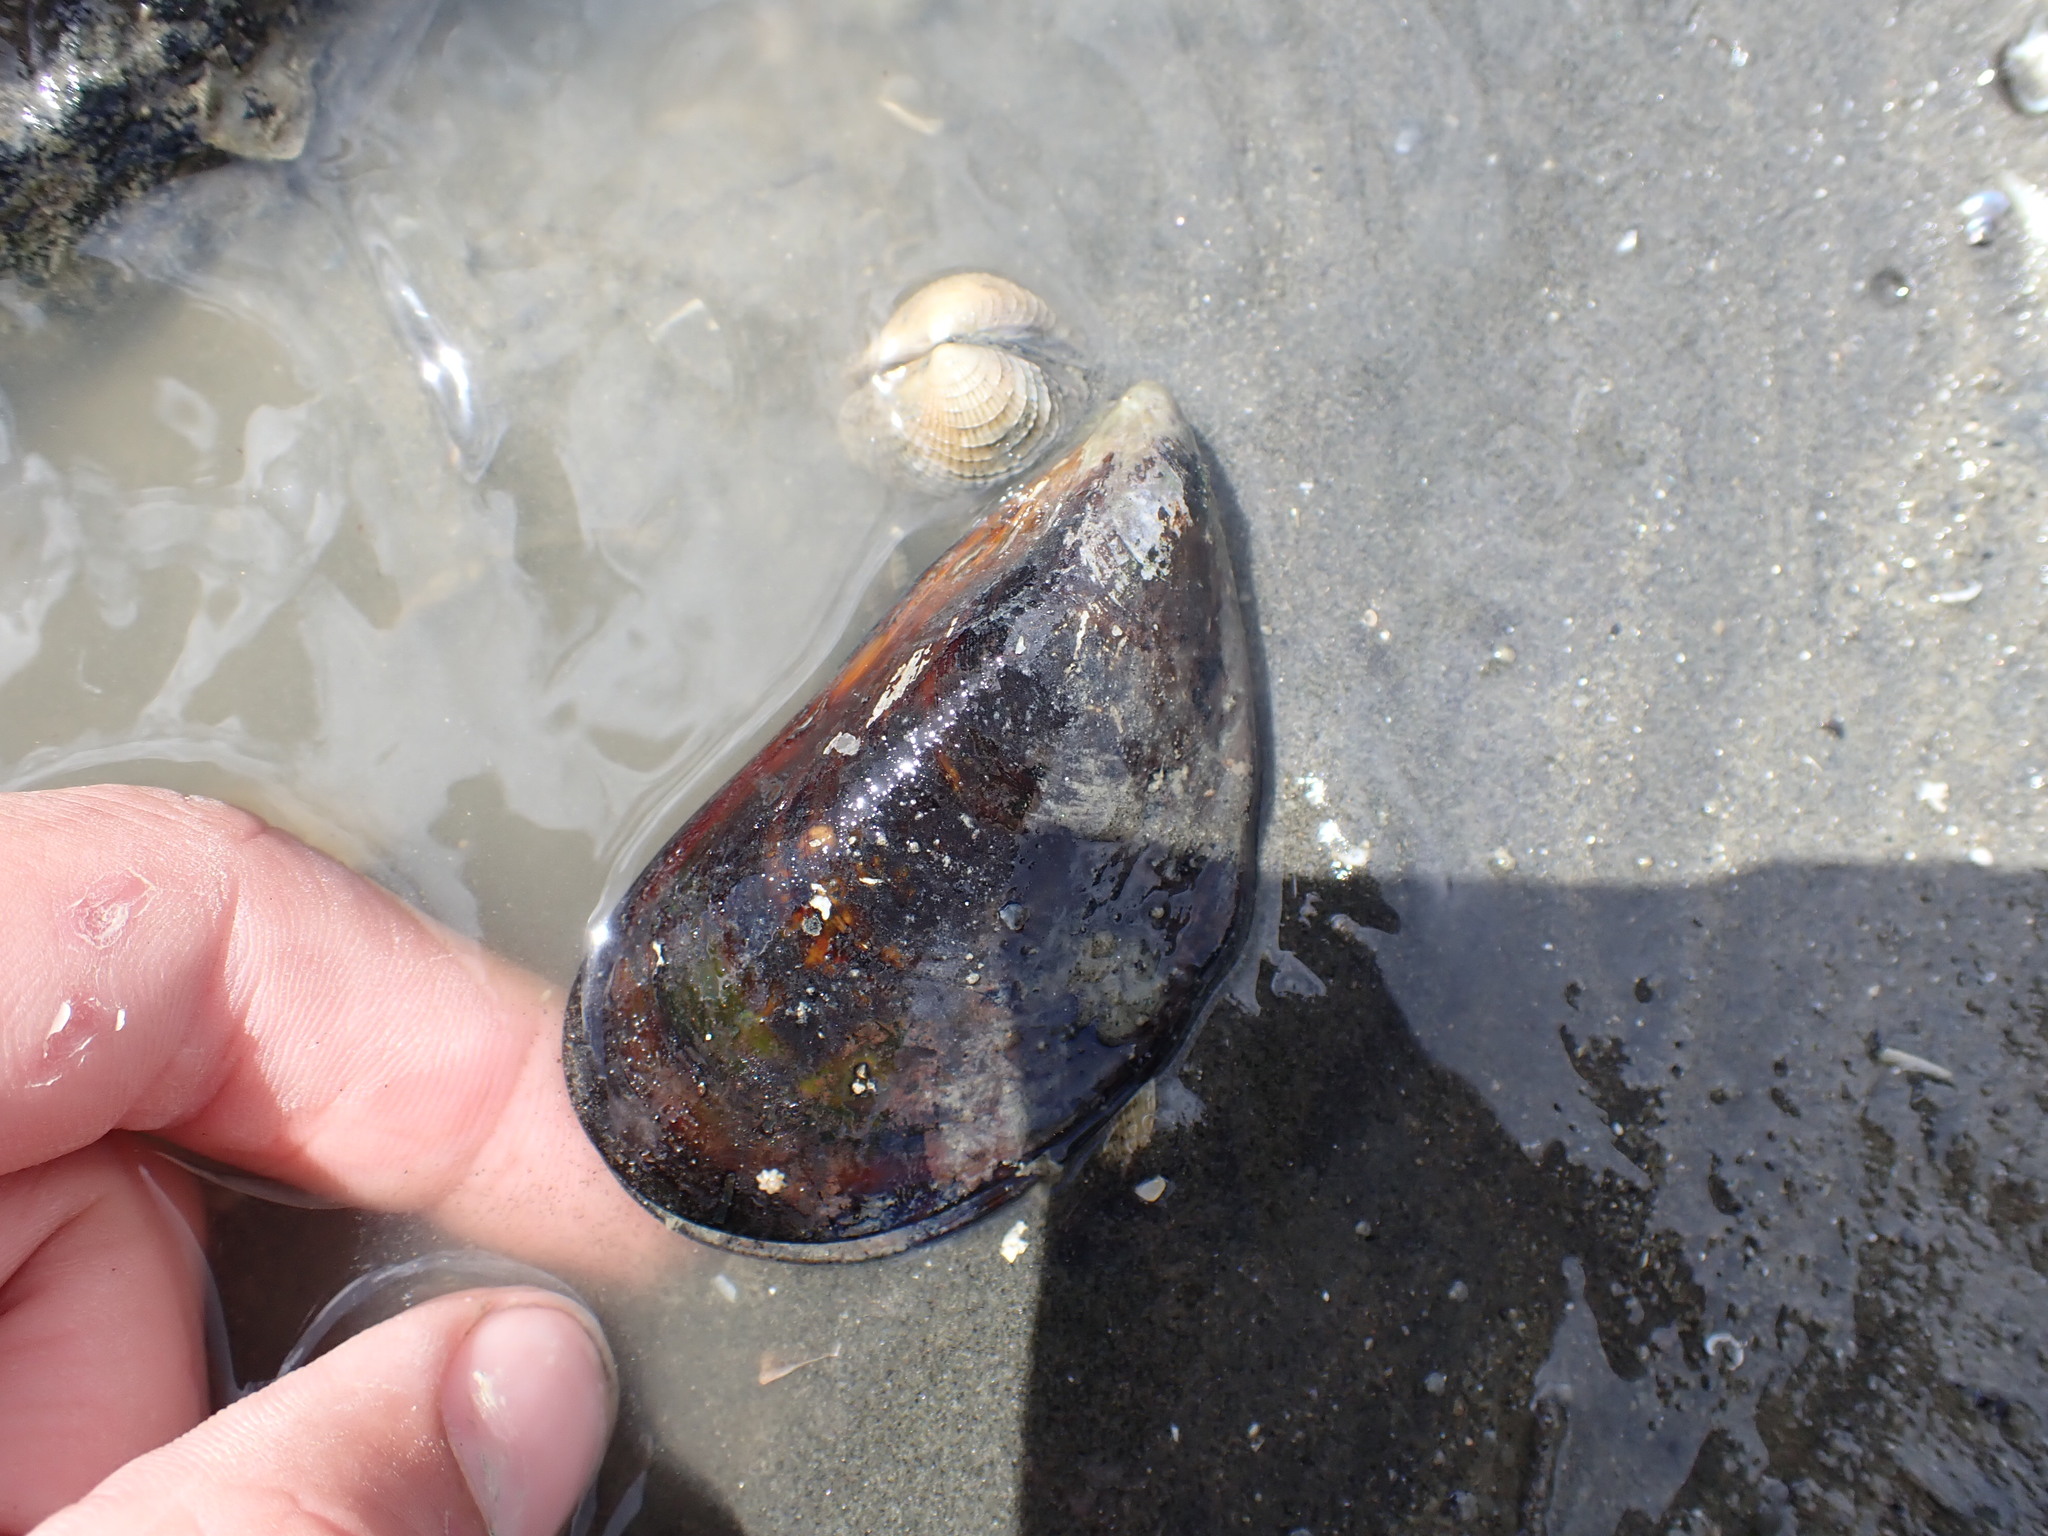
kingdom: Animalia
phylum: Mollusca
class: Bivalvia
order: Mytilida
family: Mytilidae
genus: Perna
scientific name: Perna canaliculus
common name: New zealand greenshelltm
